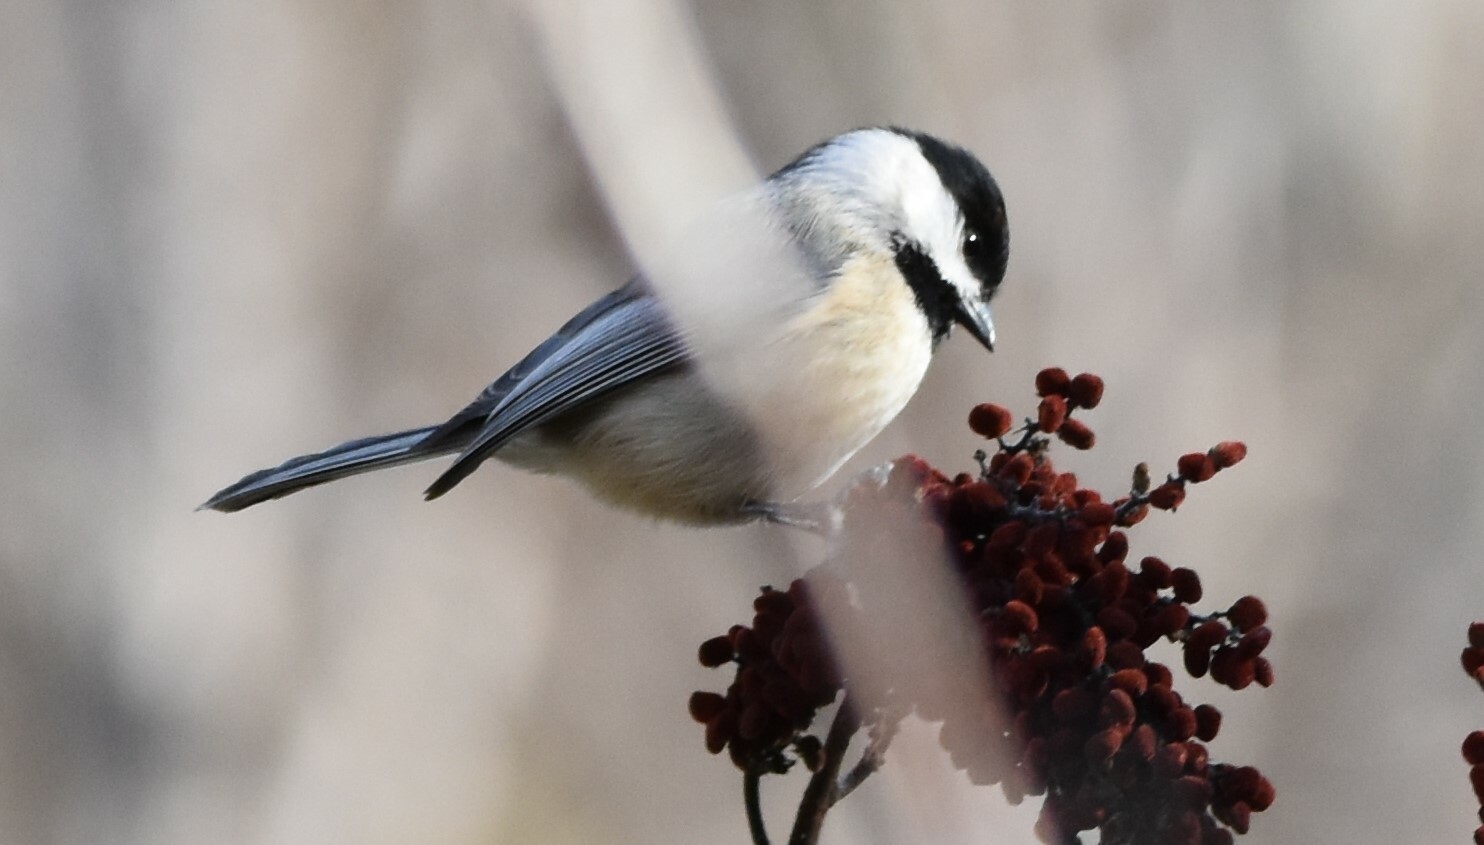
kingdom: Animalia
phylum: Chordata
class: Aves
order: Passeriformes
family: Paridae
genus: Poecile
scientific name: Poecile carolinensis
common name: Carolina chickadee
